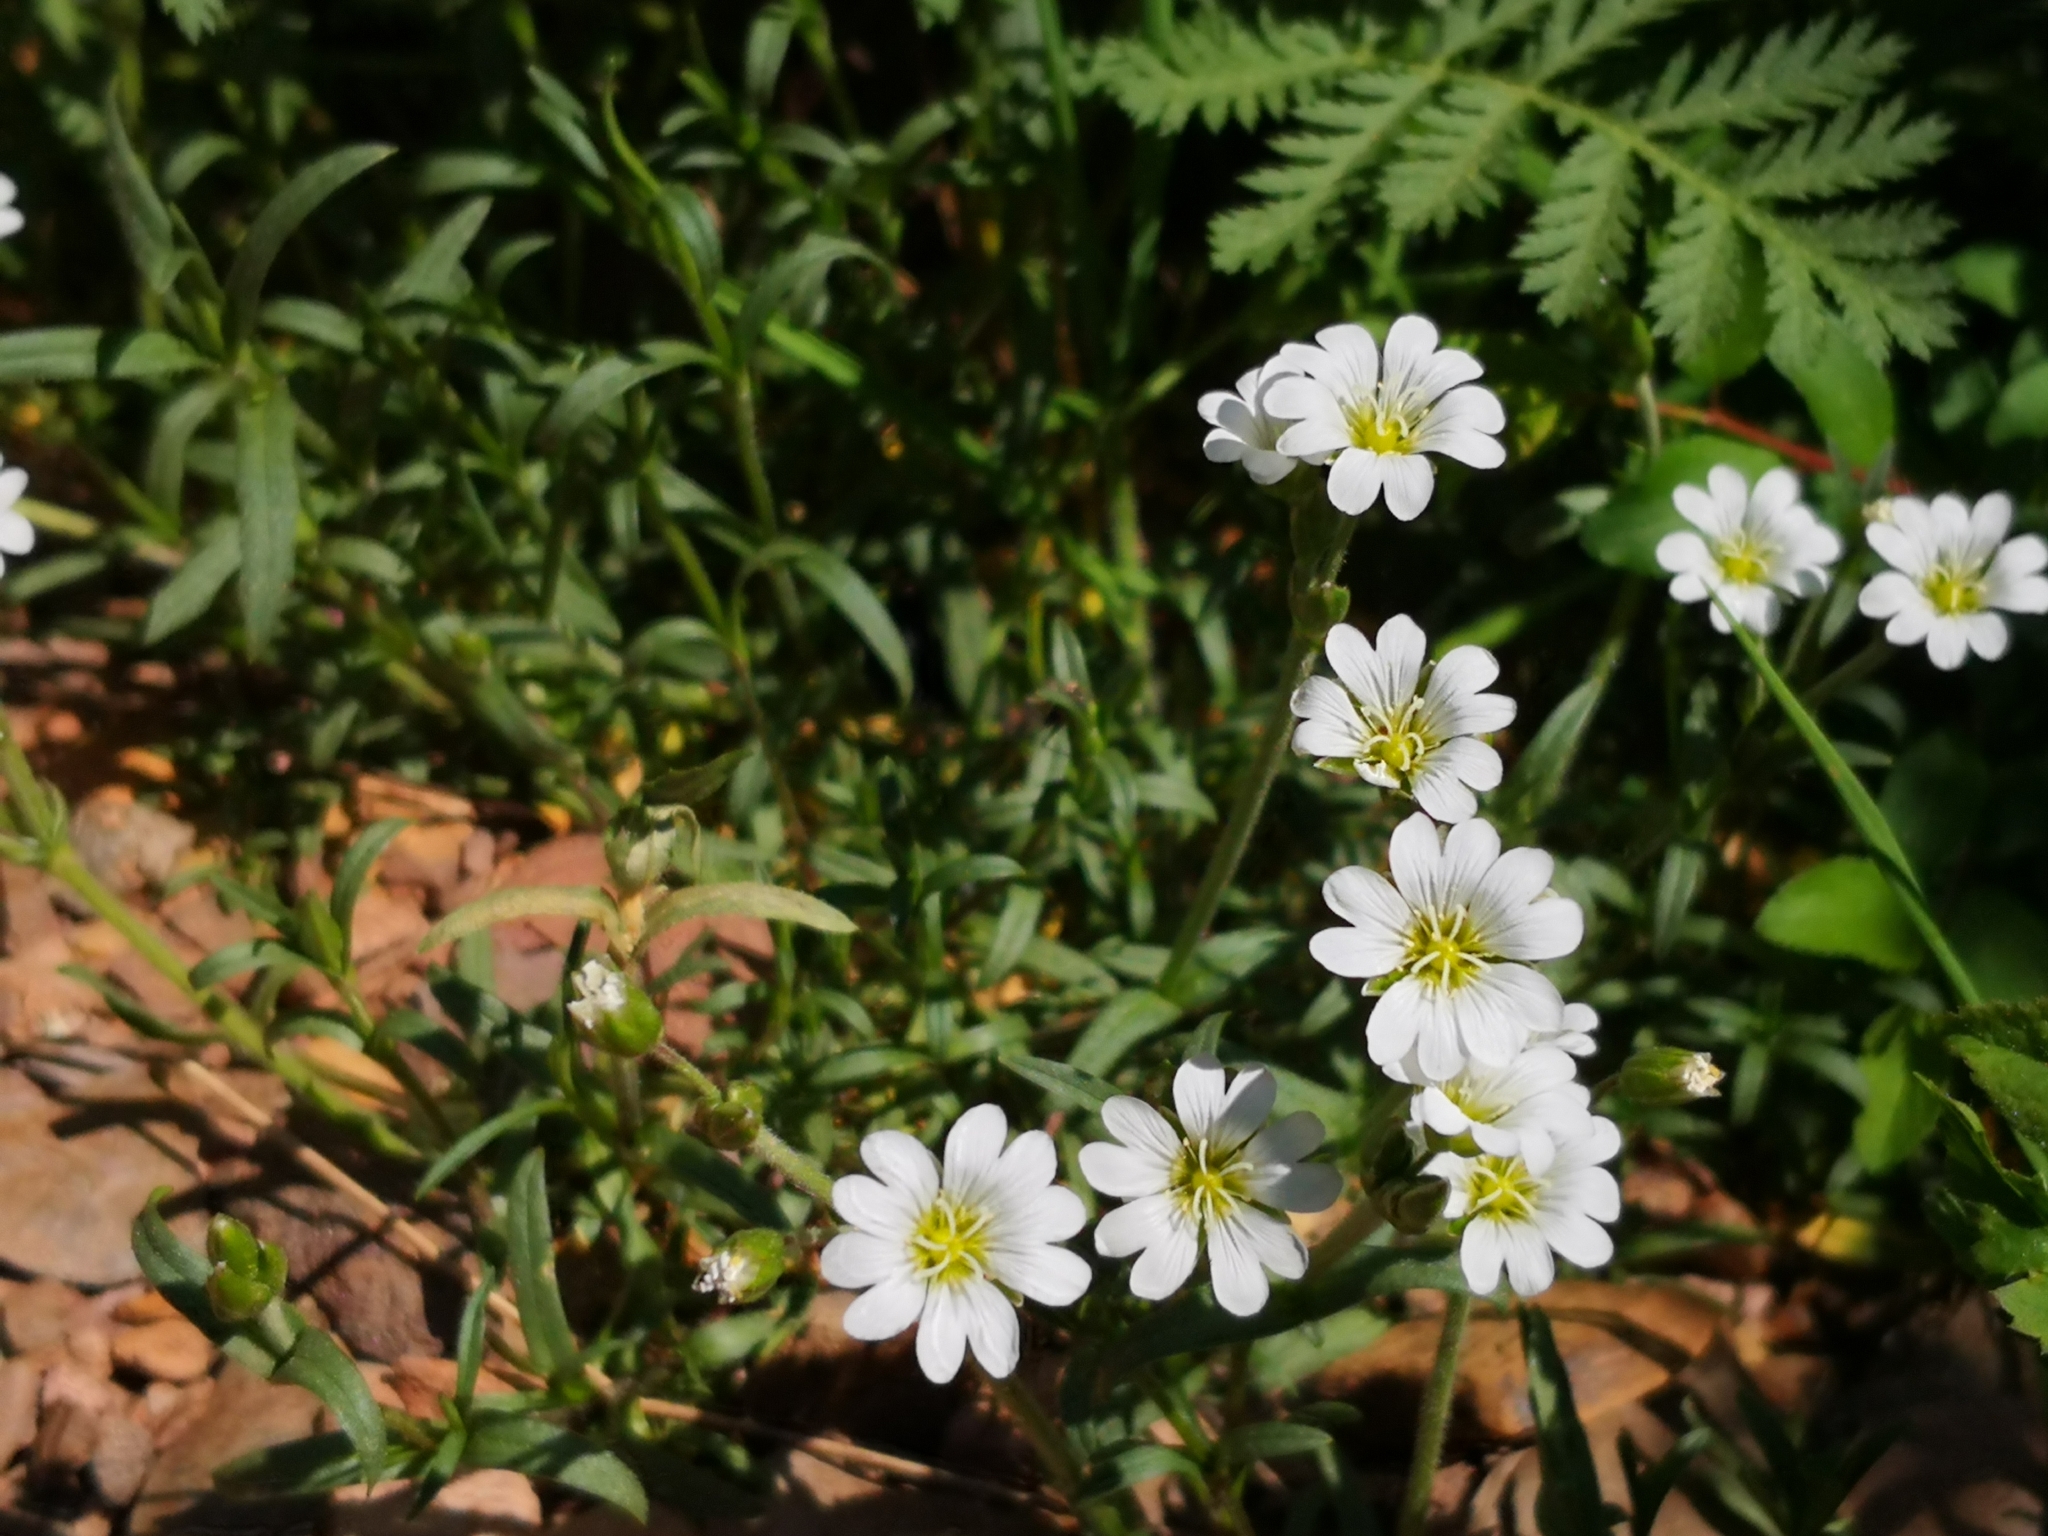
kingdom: Plantae
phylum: Tracheophyta
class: Magnoliopsida
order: Caryophyllales
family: Caryophyllaceae
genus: Cerastium
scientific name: Cerastium arvense
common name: Field mouse-ear
